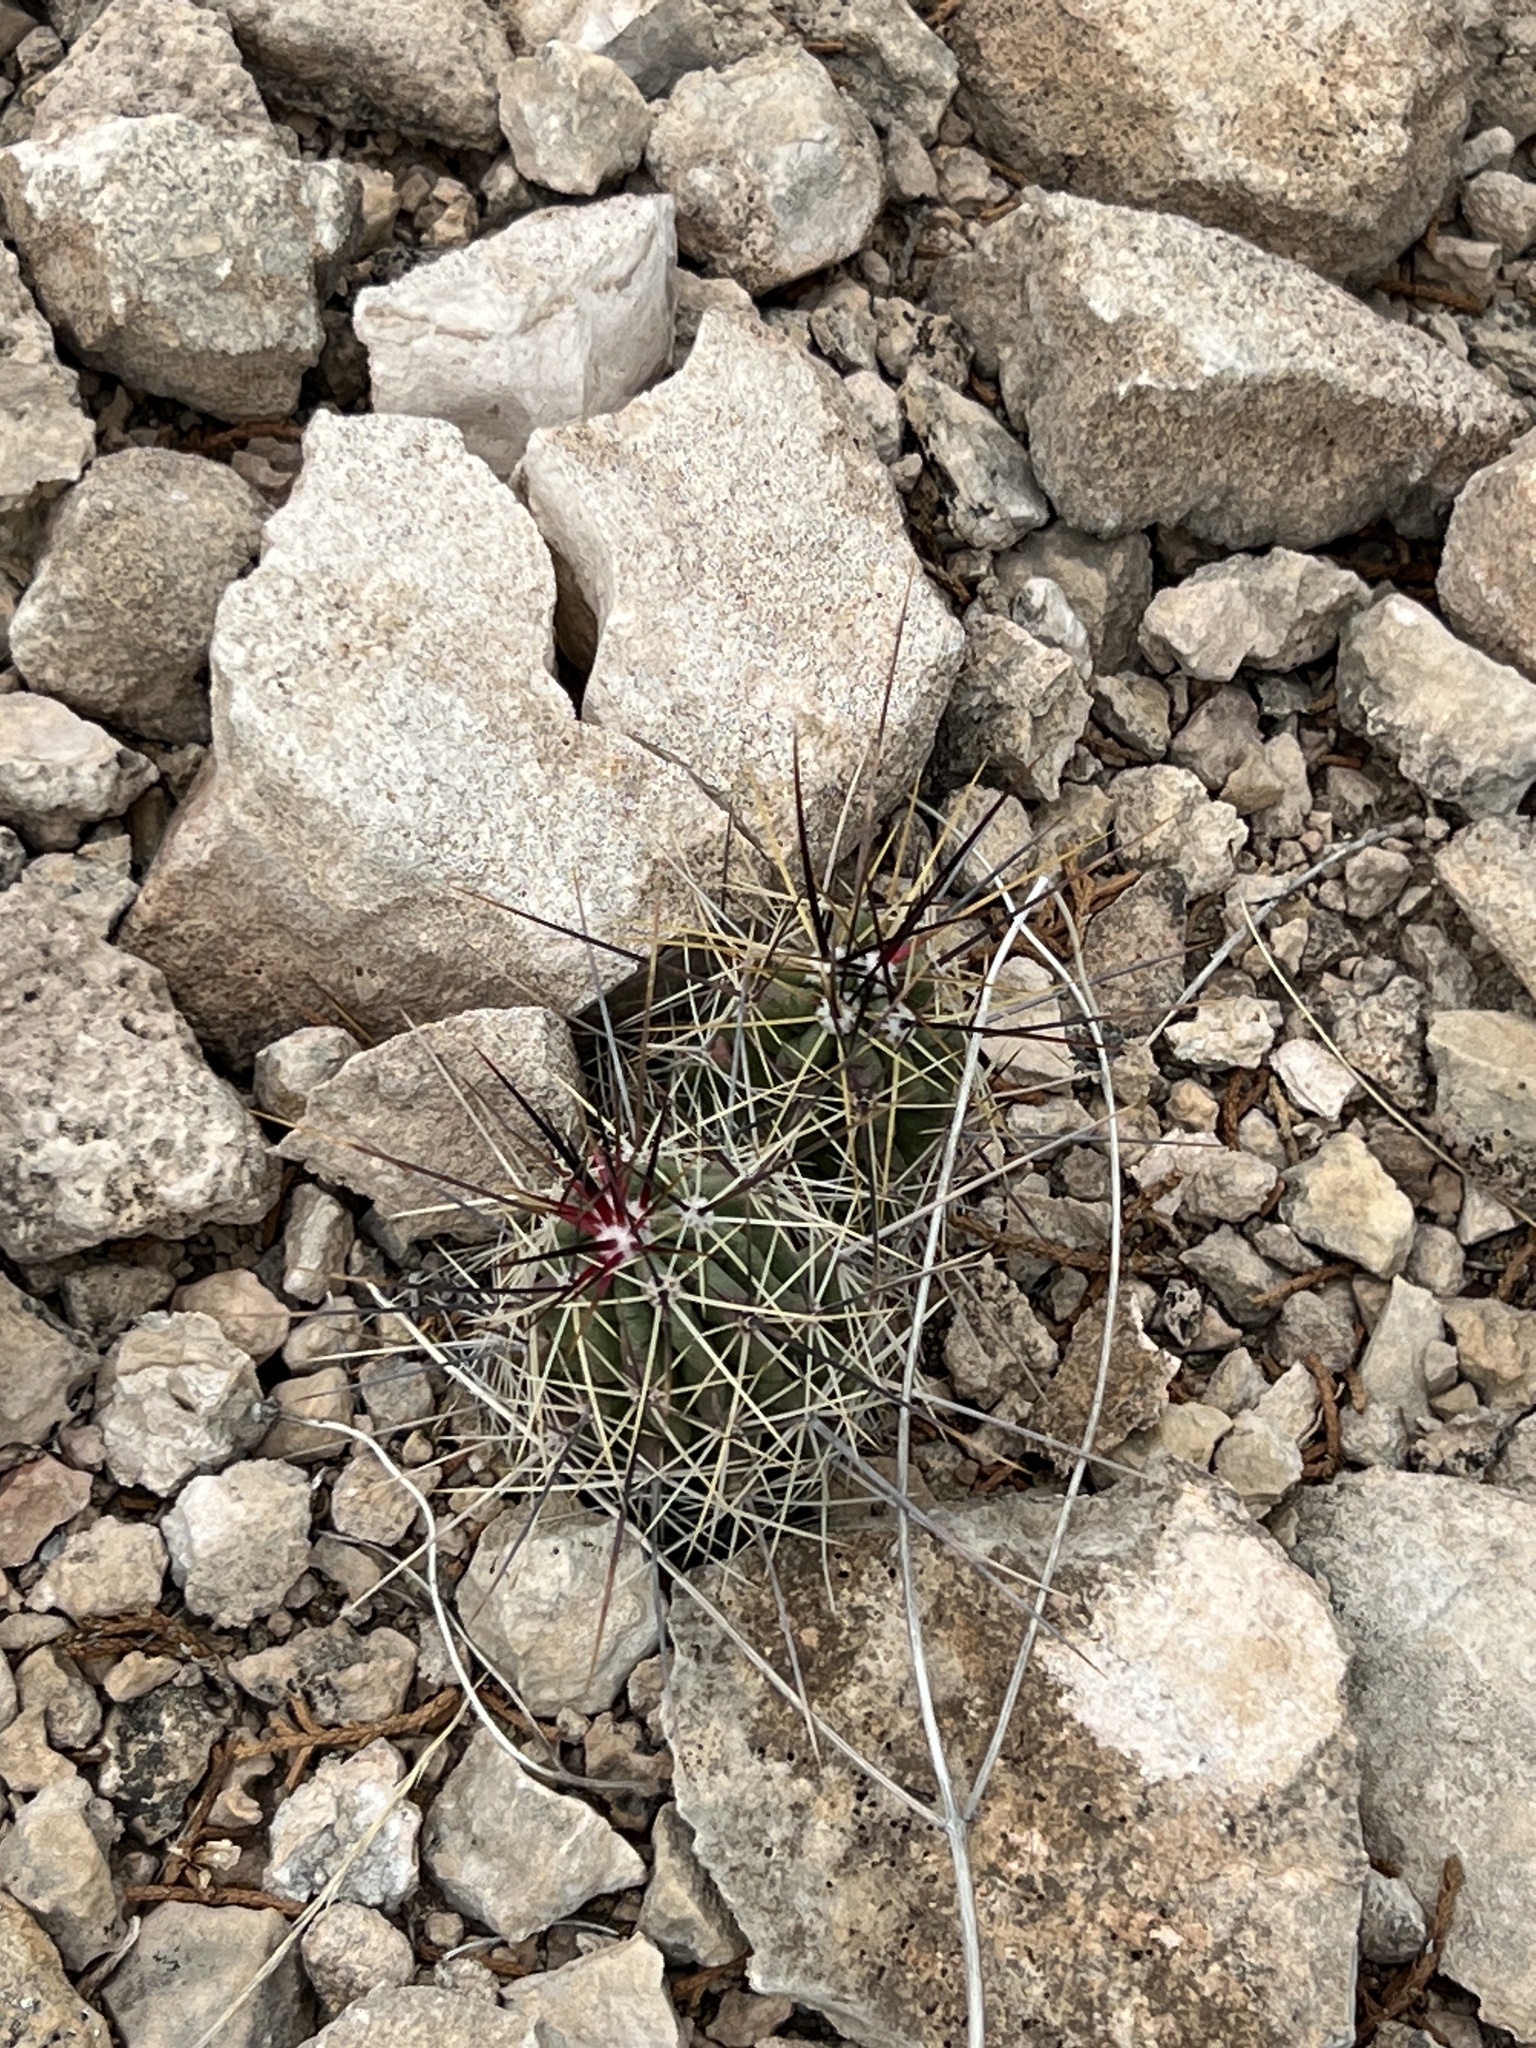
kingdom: Plantae
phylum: Tracheophyta
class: Magnoliopsida
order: Caryophyllales
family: Cactaceae
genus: Echinocereus
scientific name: Echinocereus enneacanthus
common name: Pitaya
